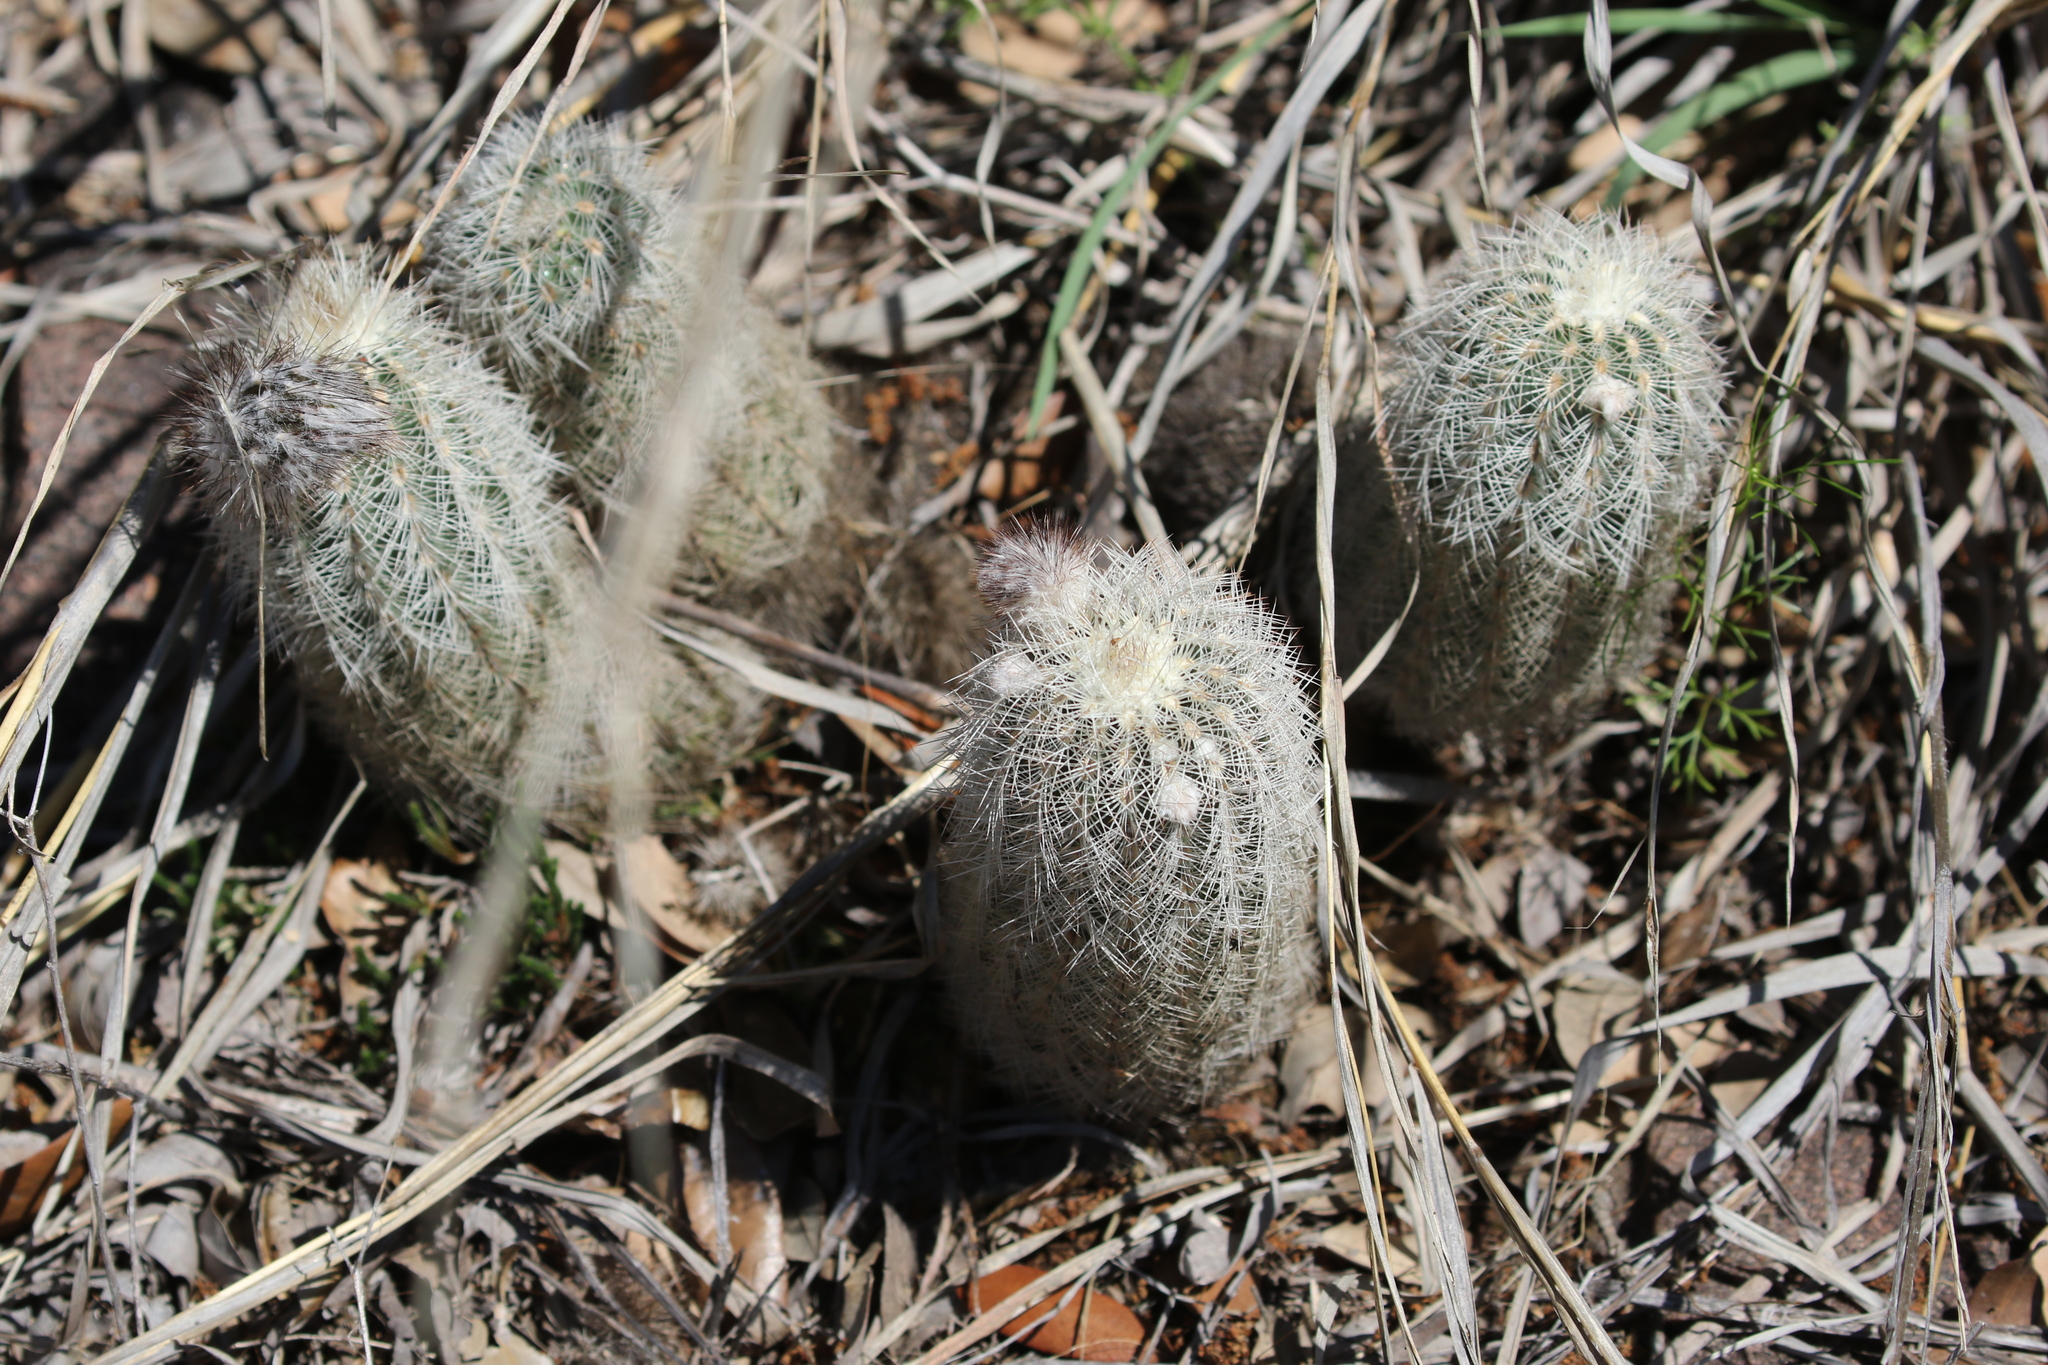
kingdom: Plantae
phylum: Tracheophyta
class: Magnoliopsida
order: Caryophyllales
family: Cactaceae
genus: Echinocereus
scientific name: Echinocereus reichenbachii
